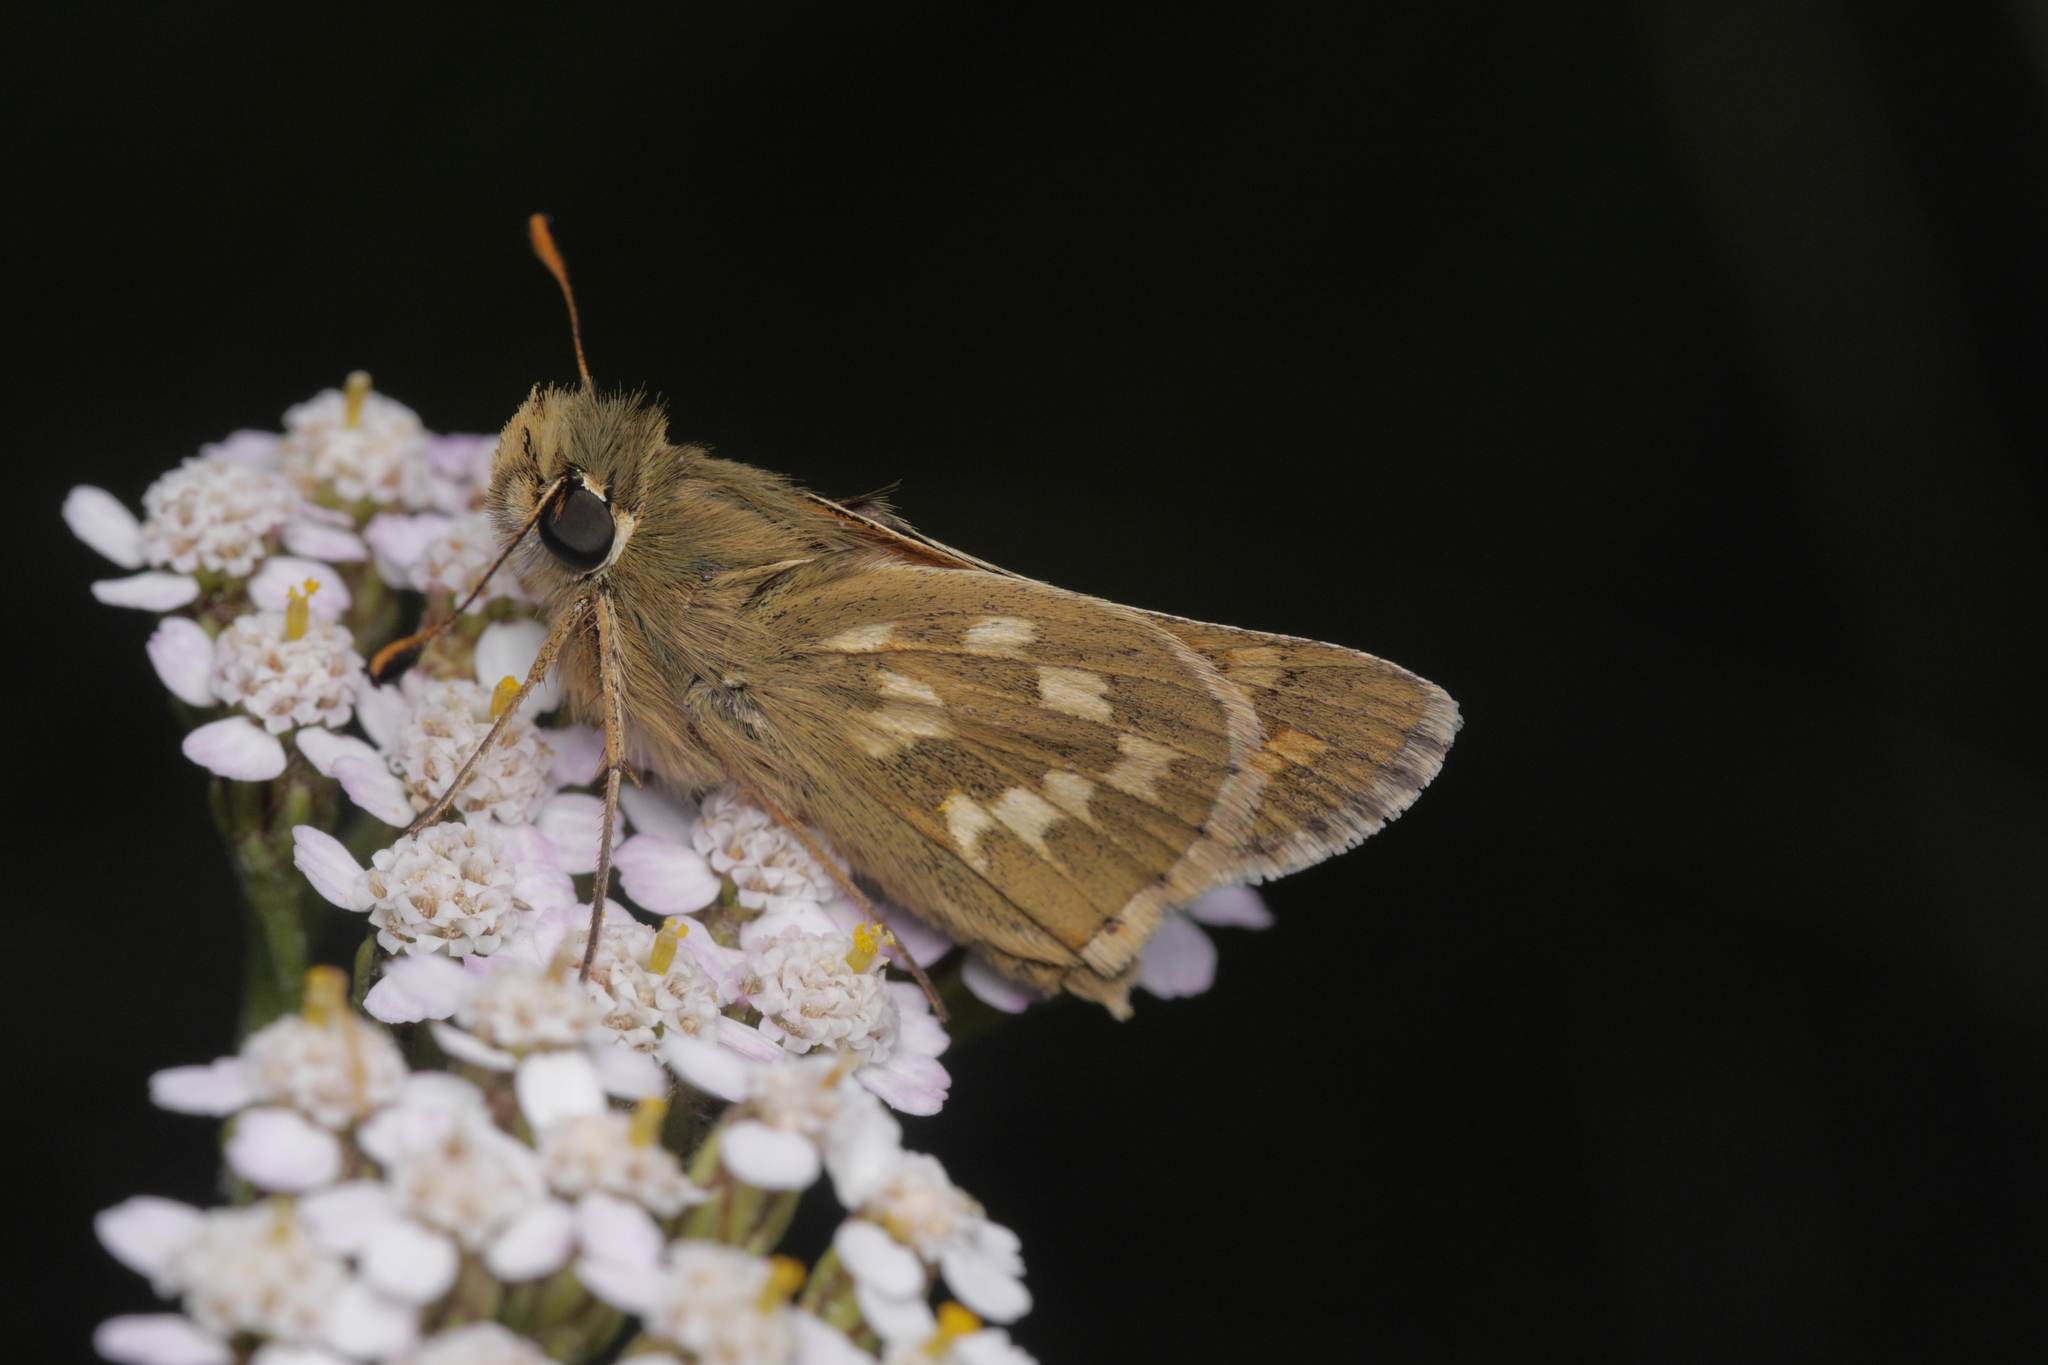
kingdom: Animalia
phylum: Arthropoda
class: Insecta
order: Lepidoptera
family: Hesperiidae
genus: Hesperia
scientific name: Hesperia comma
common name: Common branded skipper
